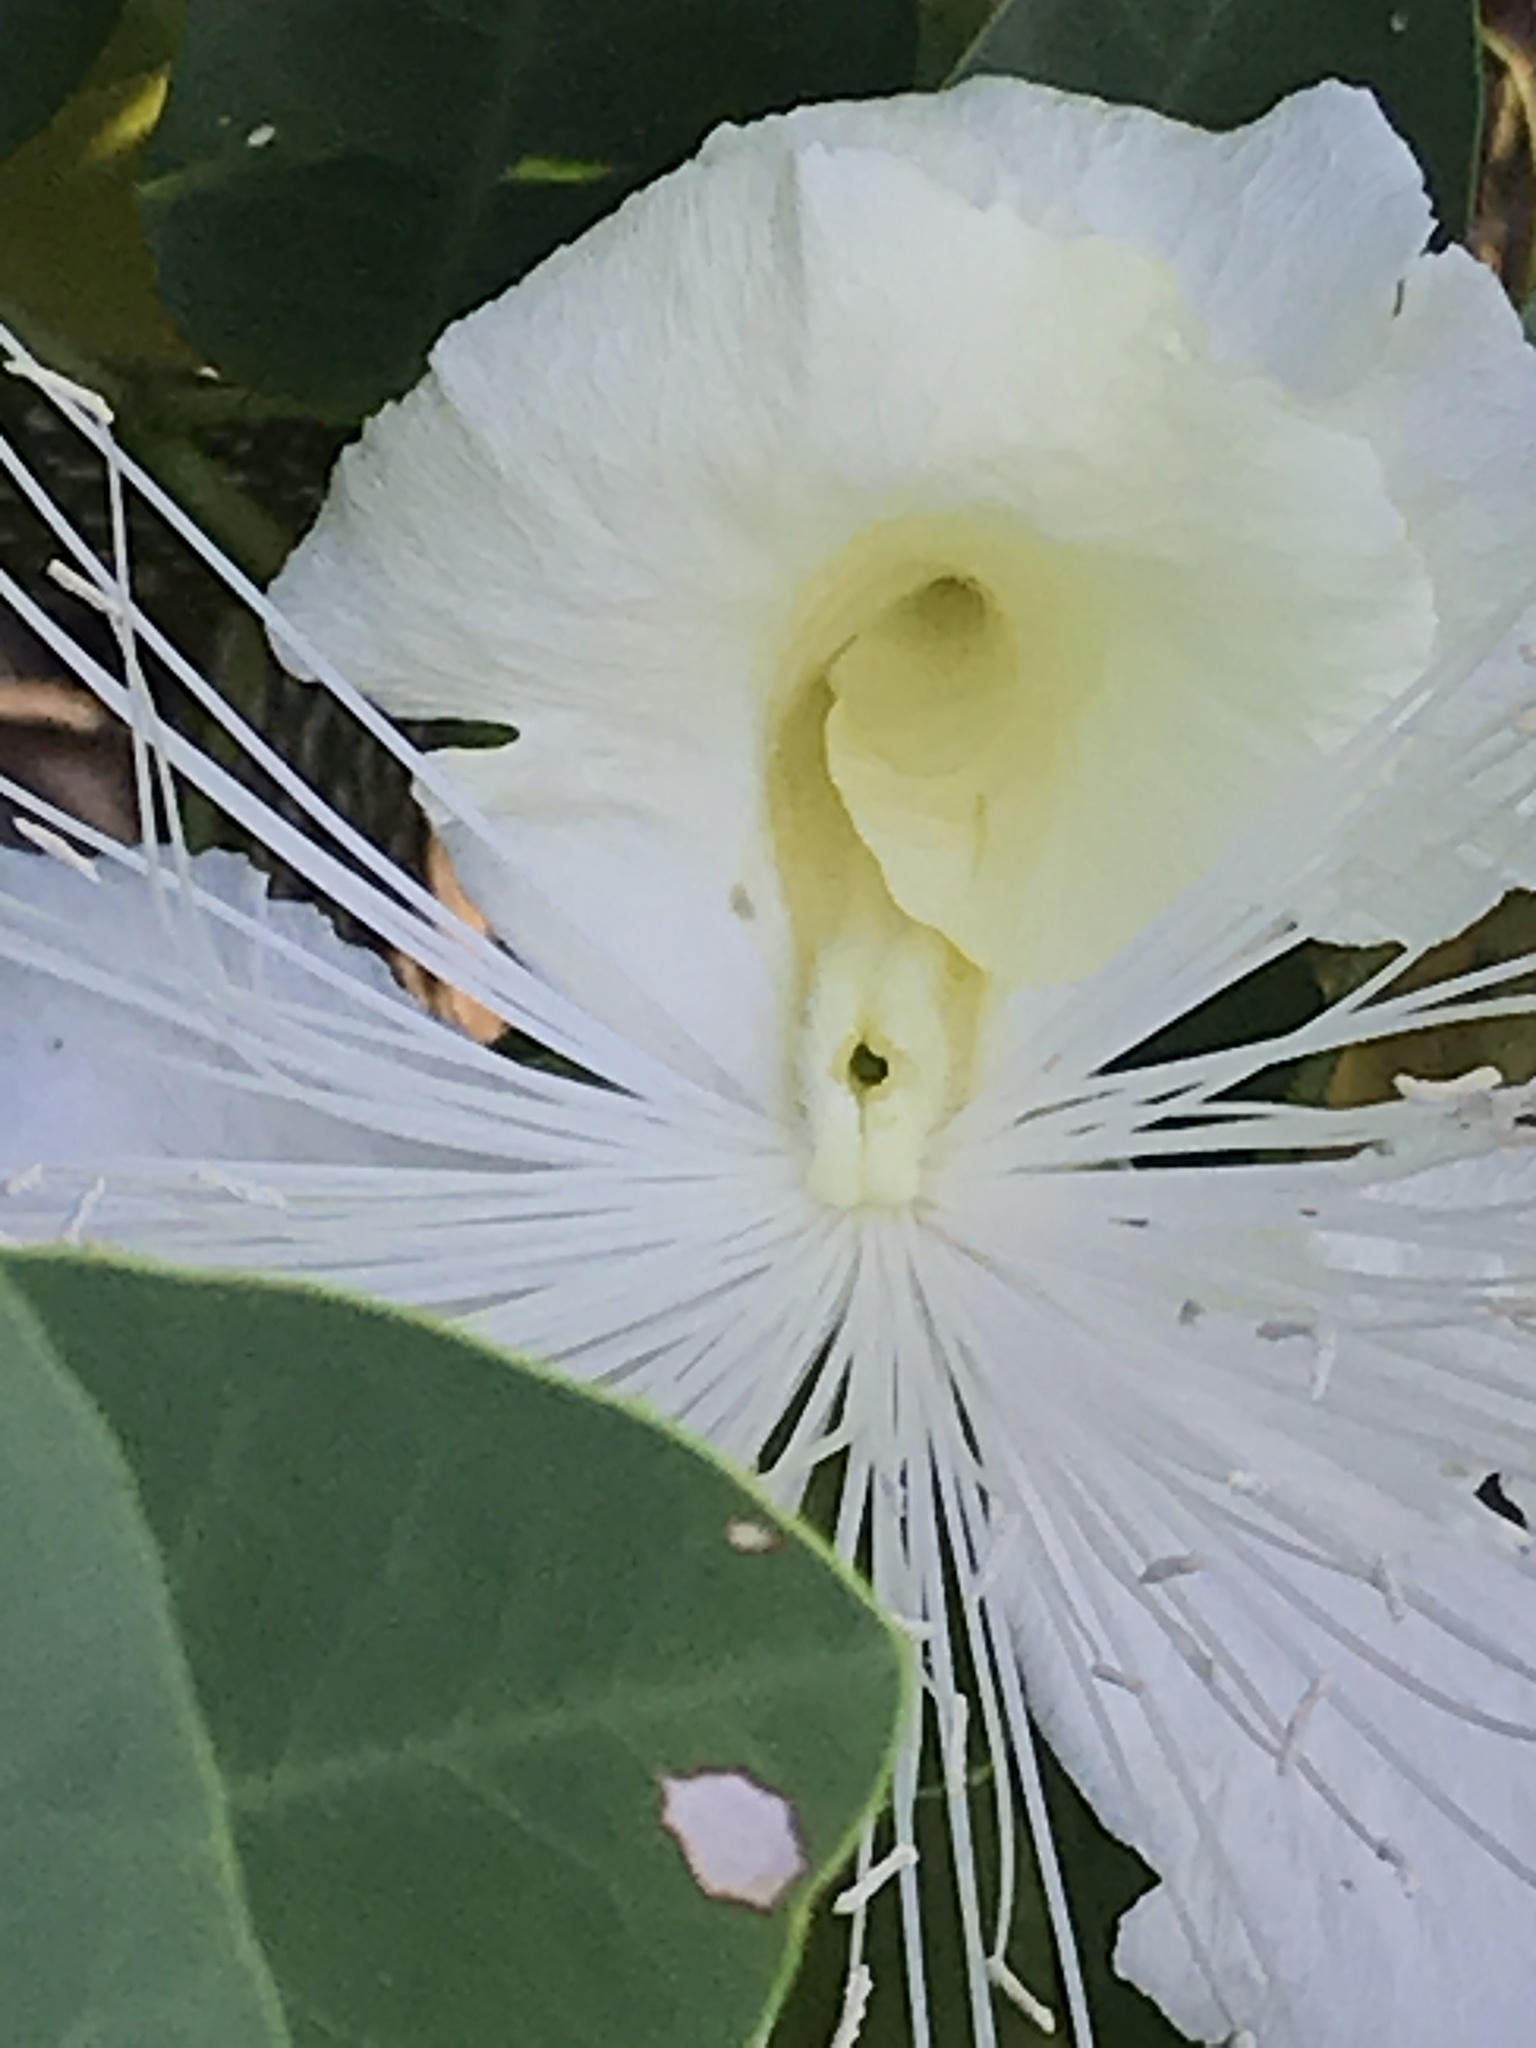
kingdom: Plantae
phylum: Tracheophyta
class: Magnoliopsida
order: Brassicales
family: Capparaceae
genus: Capparis
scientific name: Capparis spinosa
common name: Caper
